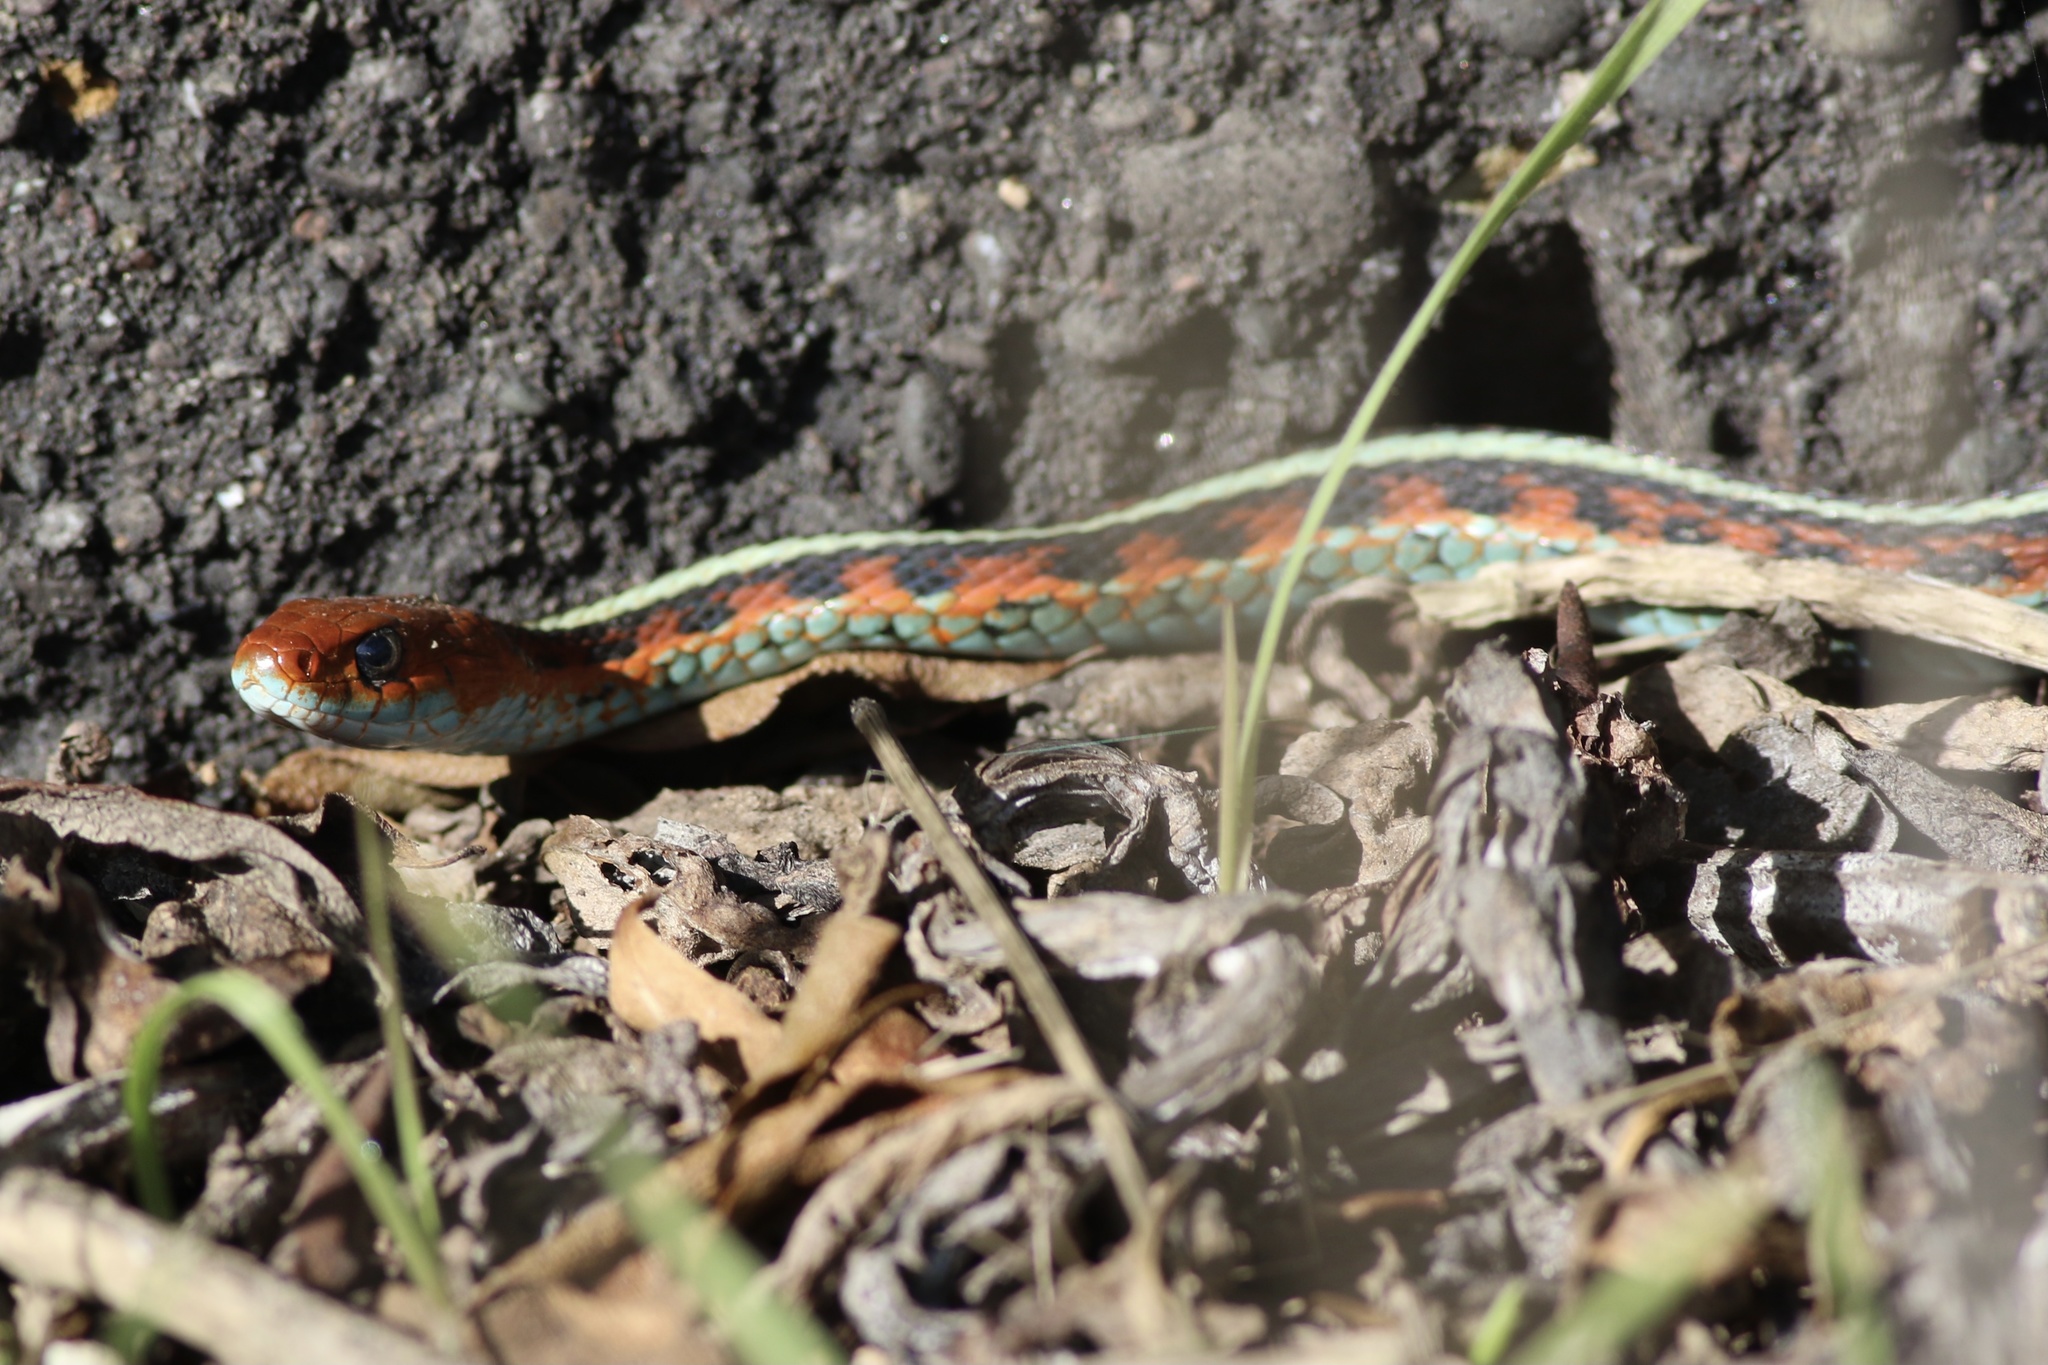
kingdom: Animalia
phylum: Chordata
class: Squamata
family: Colubridae
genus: Thamnophis
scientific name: Thamnophis sirtalis
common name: Common garter snake
